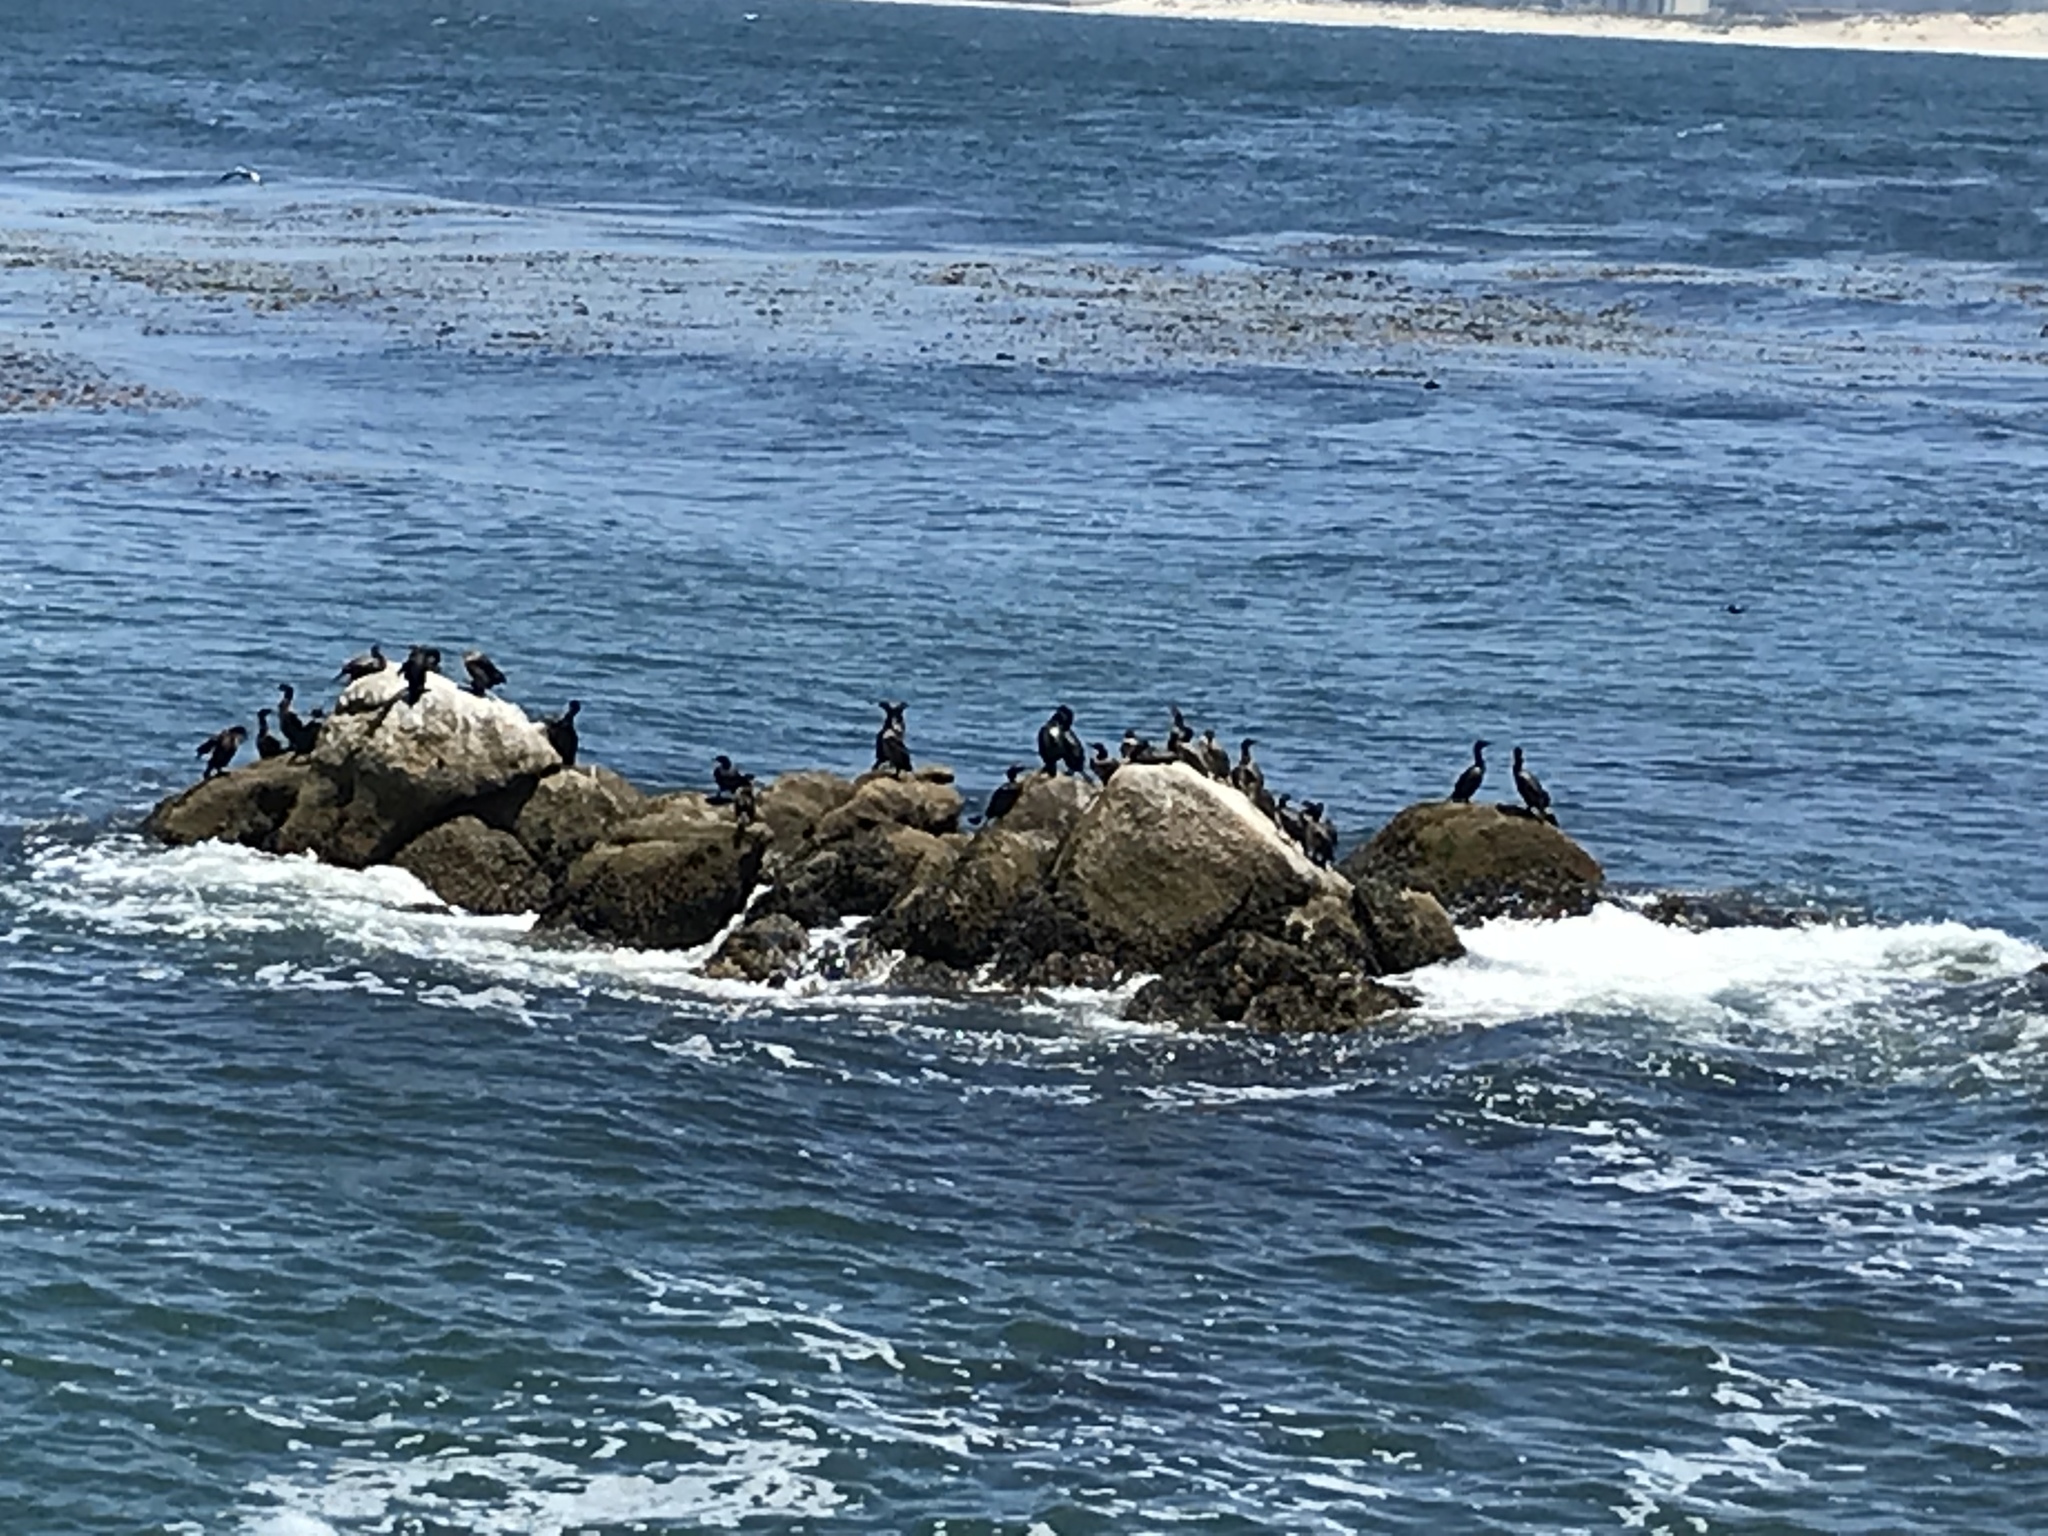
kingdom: Animalia
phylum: Chordata
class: Aves
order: Suliformes
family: Phalacrocoracidae
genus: Urile
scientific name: Urile penicillatus
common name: Brandt's cormorant
